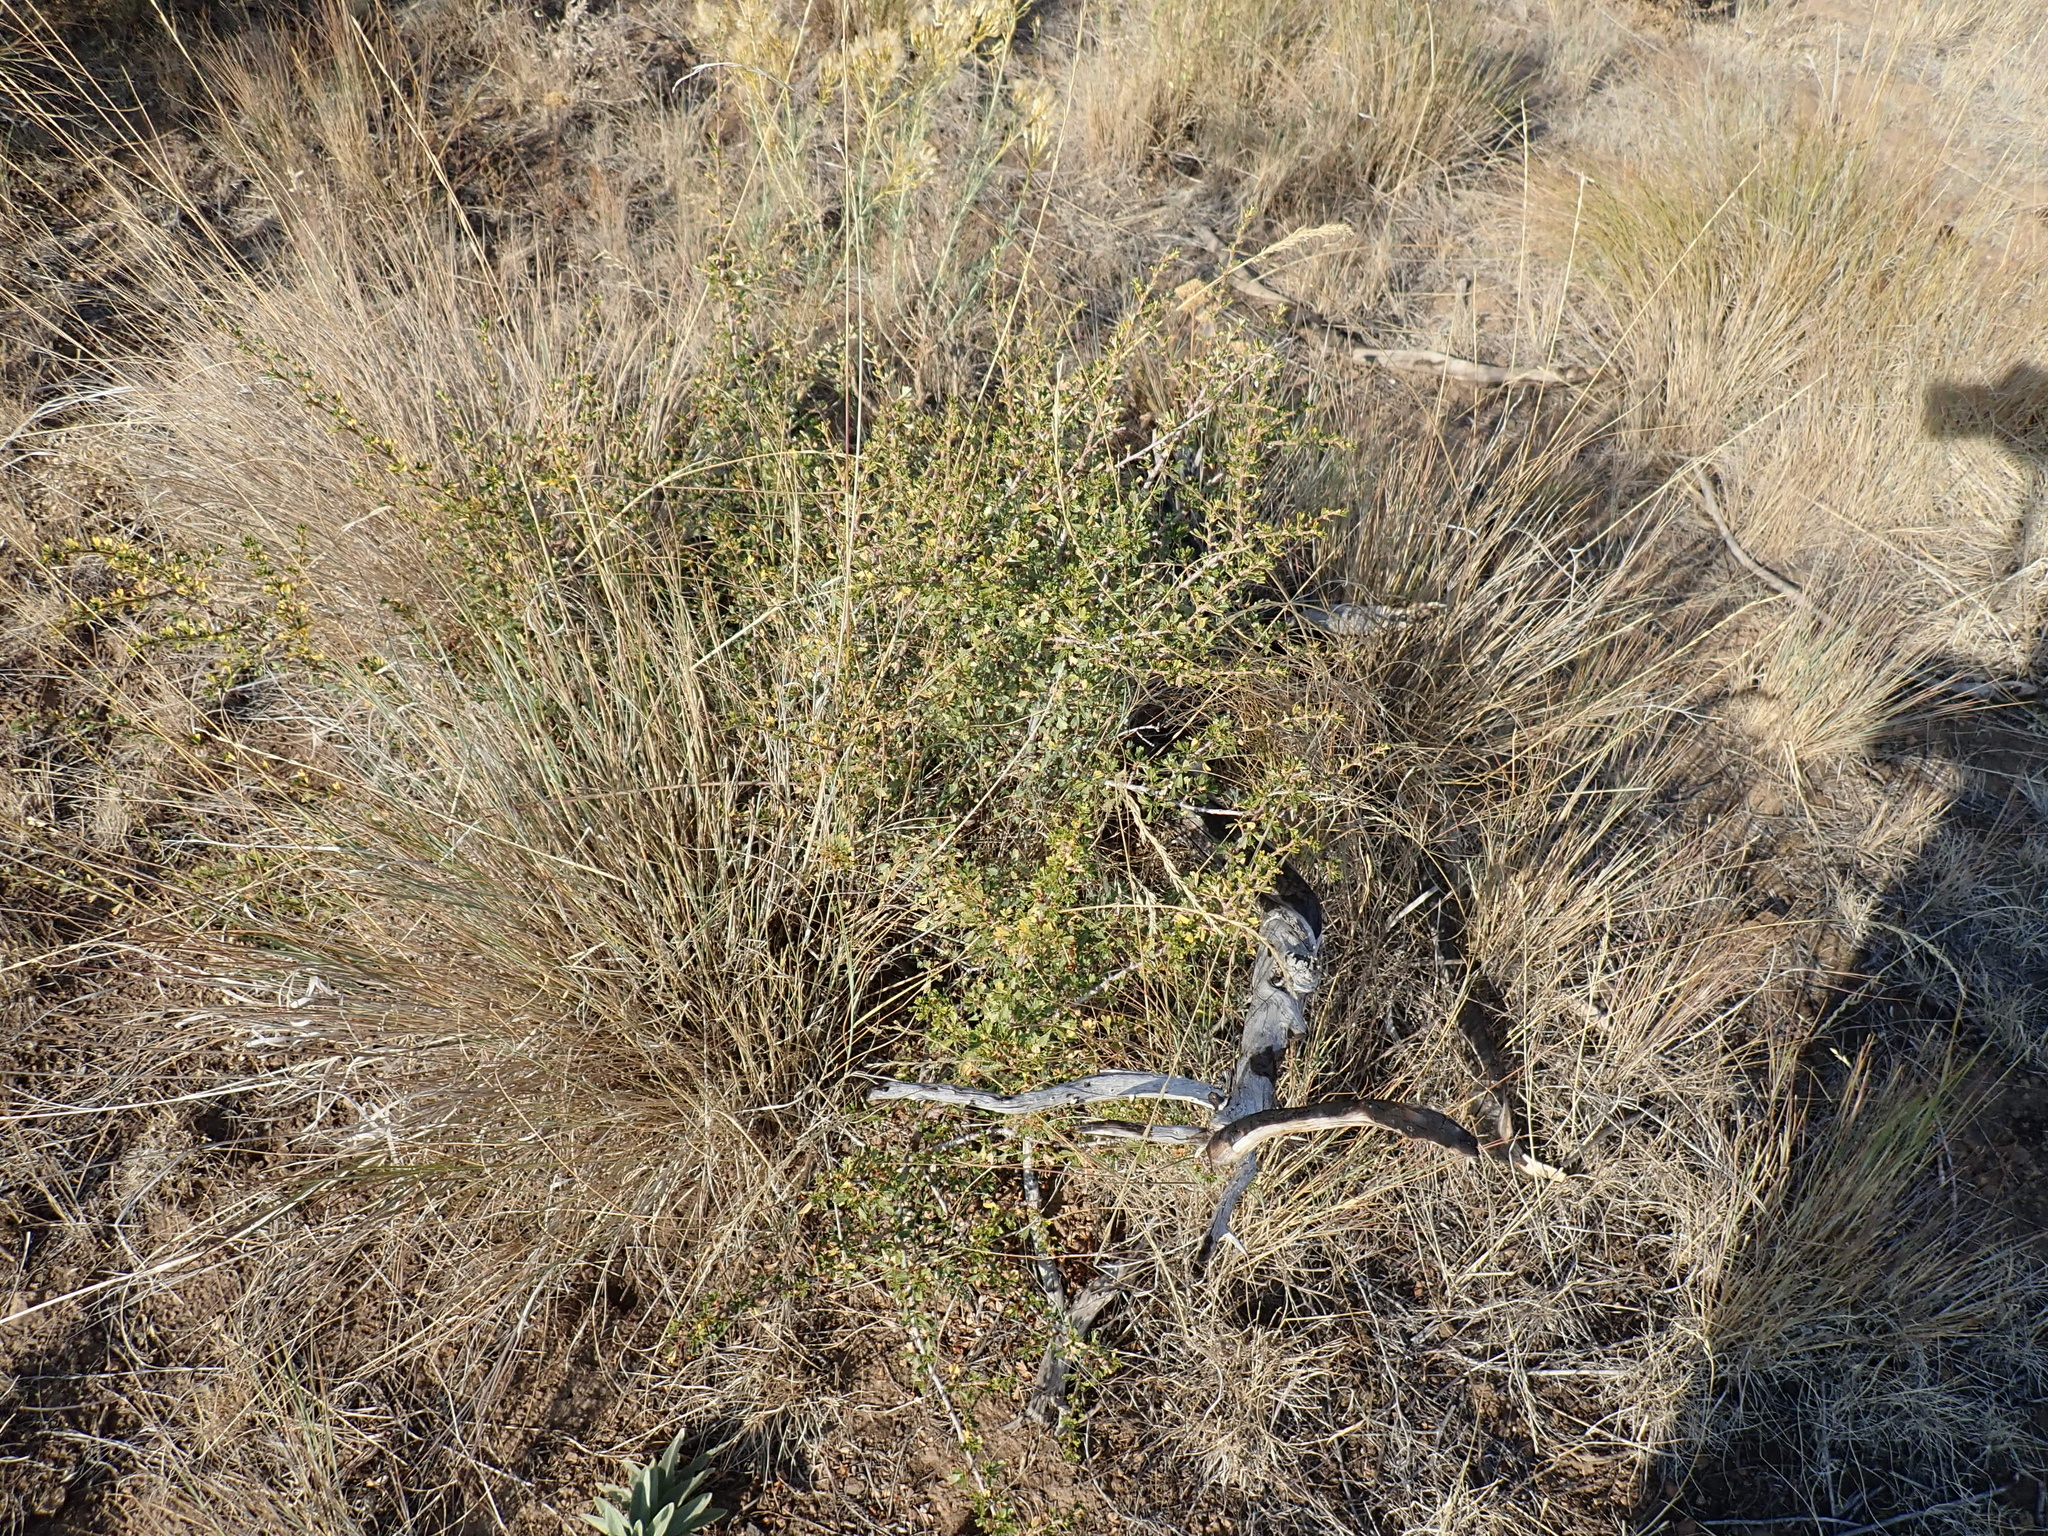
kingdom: Plantae
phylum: Tracheophyta
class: Magnoliopsida
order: Rosales
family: Rosaceae
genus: Purshia
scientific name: Purshia tridentata
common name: Antelope bitterbrush
